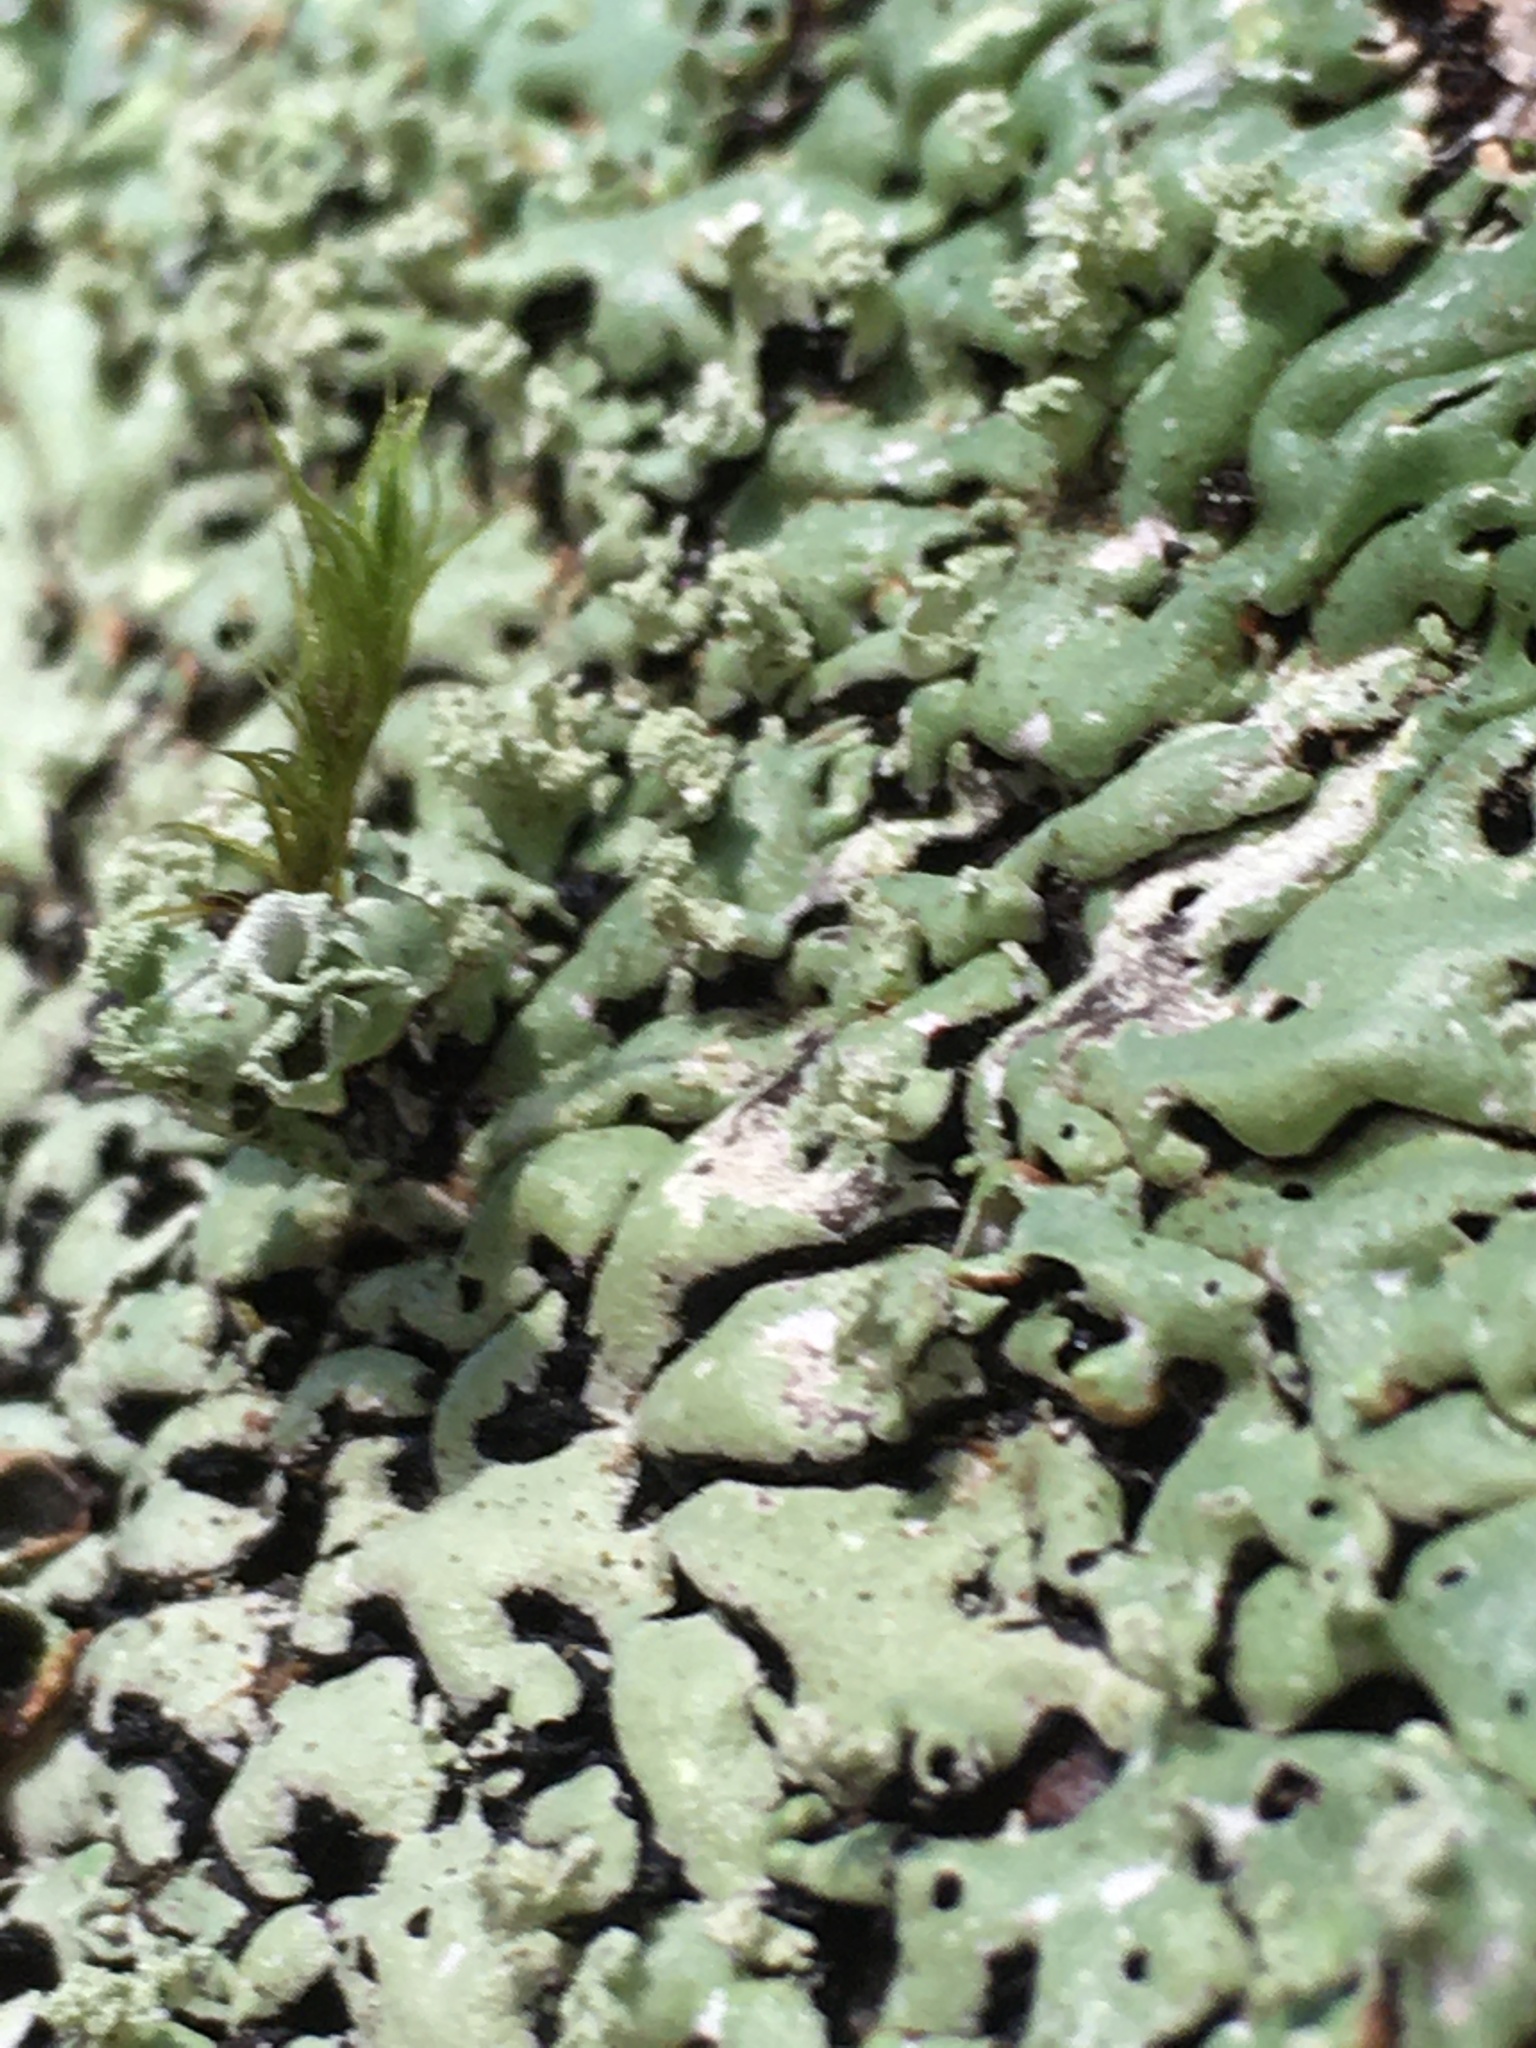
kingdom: Fungi
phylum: Ascomycota
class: Lecanoromycetes
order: Lecanorales
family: Parmeliaceae
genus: Menegazzia
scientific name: Menegazzia subsimilis
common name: Tree flute lichen
